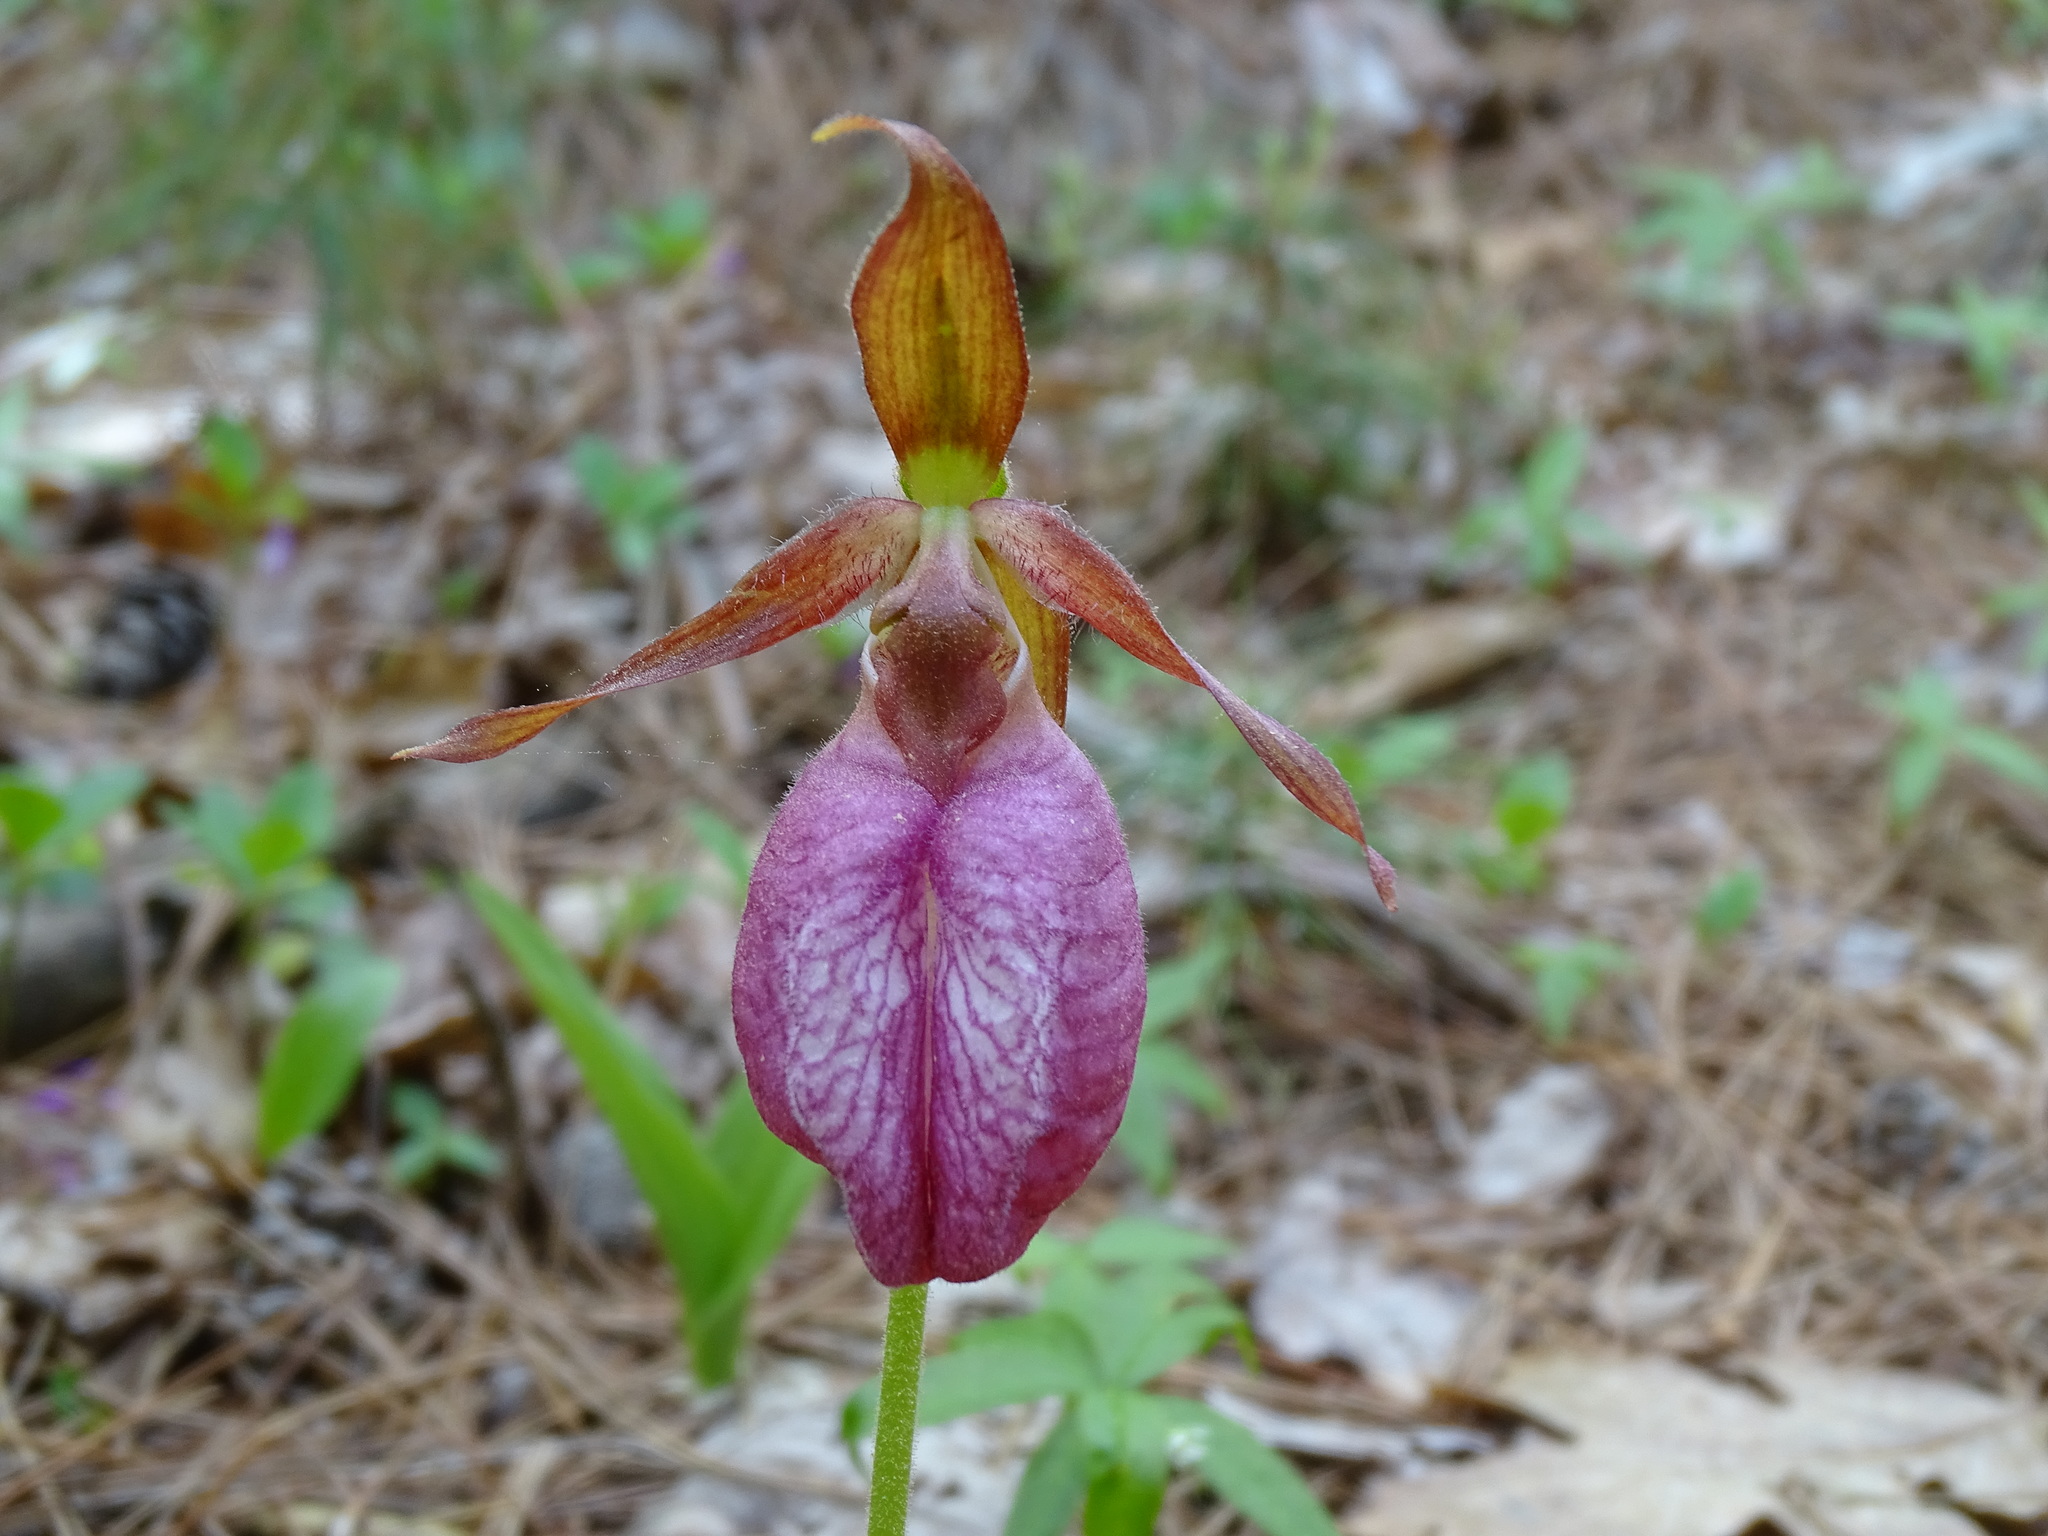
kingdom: Plantae
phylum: Tracheophyta
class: Liliopsida
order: Asparagales
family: Orchidaceae
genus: Cypripedium
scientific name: Cypripedium acaule
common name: Pink lady's-slipper
